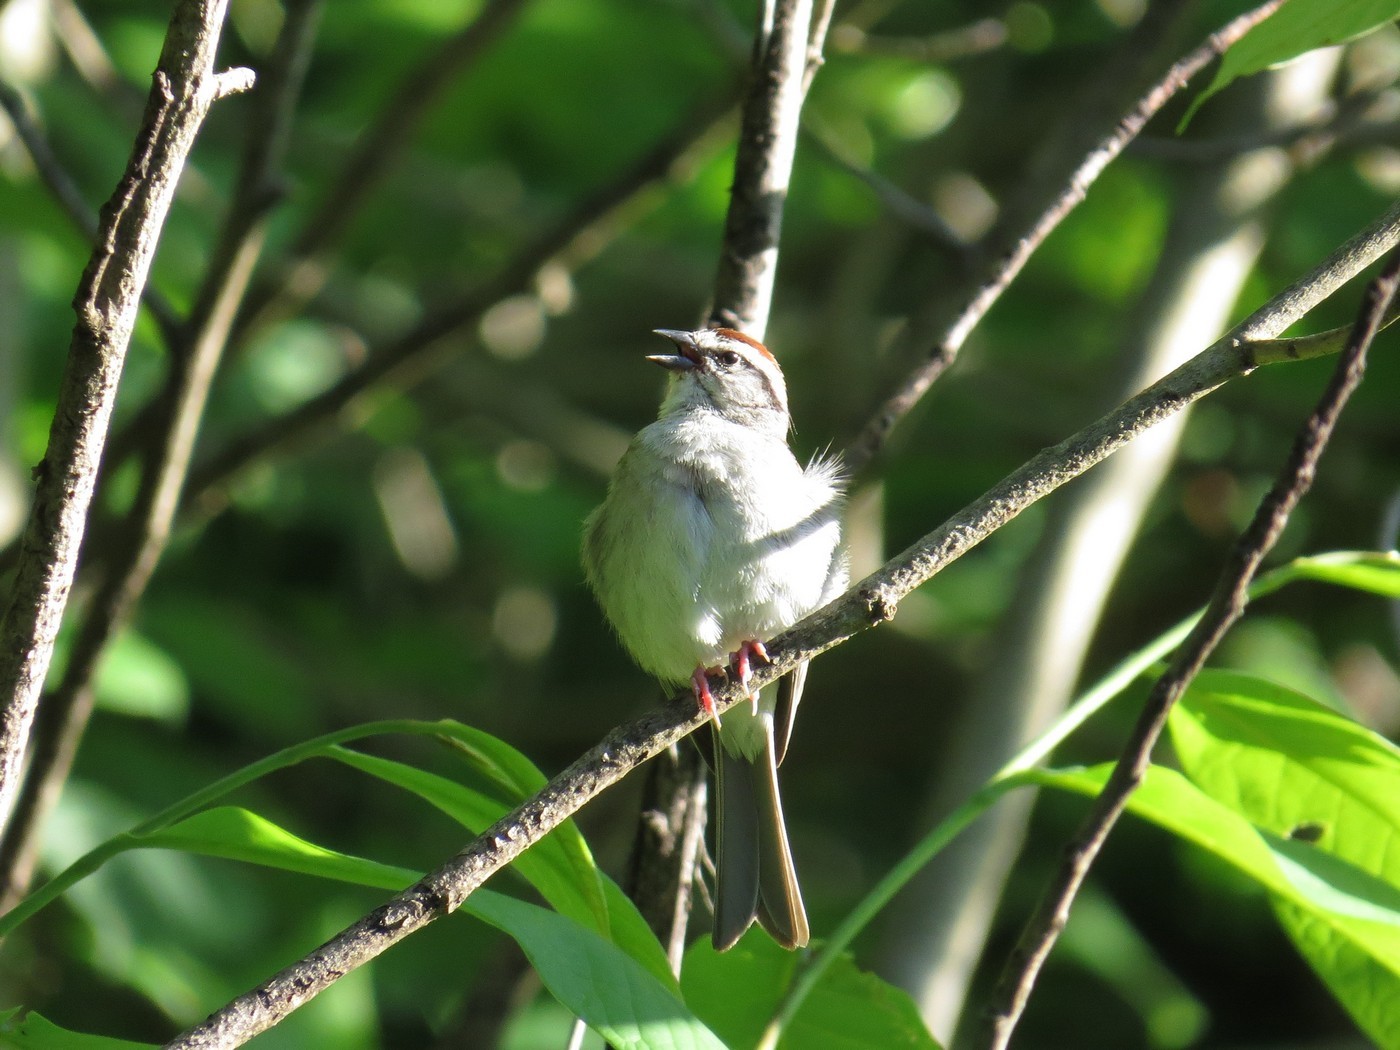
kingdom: Animalia
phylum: Chordata
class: Aves
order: Passeriformes
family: Passerellidae
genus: Spizella
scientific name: Spizella passerina
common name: Chipping sparrow
